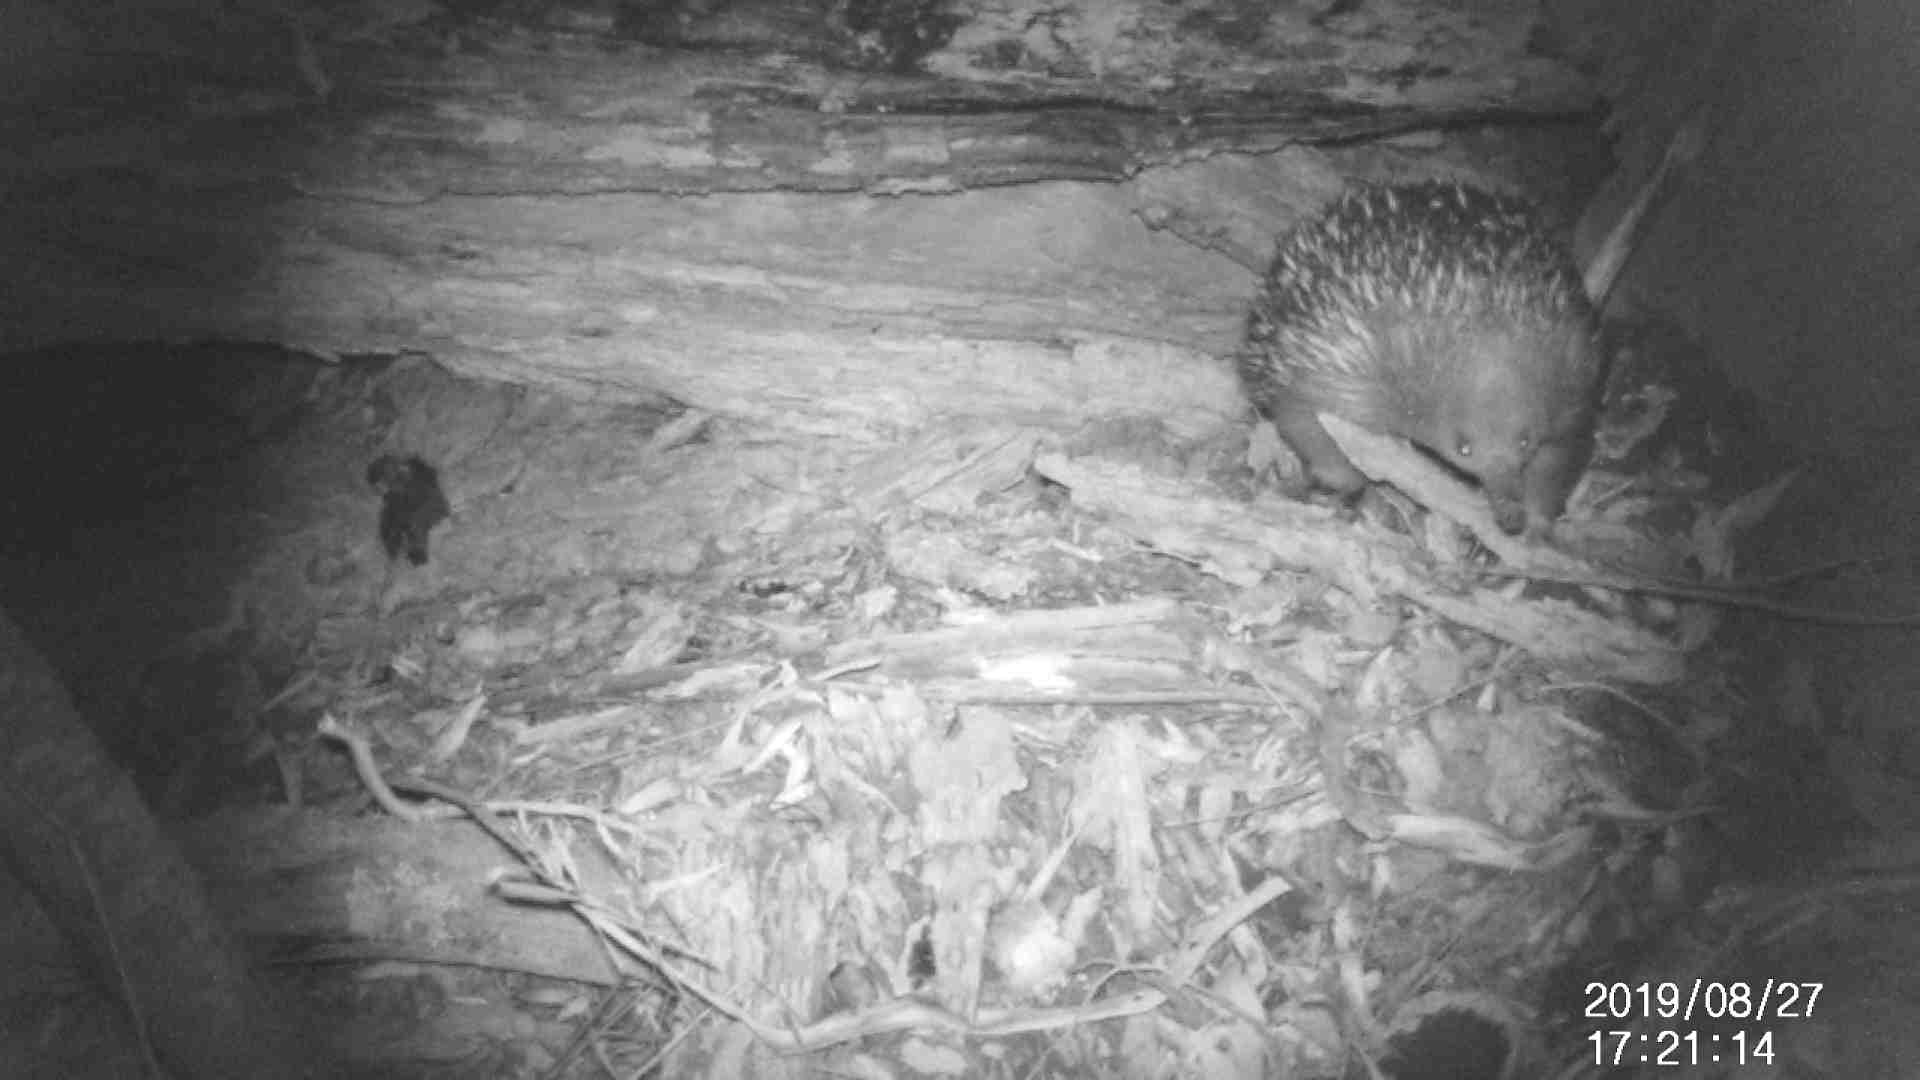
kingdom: Animalia
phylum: Chordata
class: Mammalia
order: Monotremata
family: Tachyglossidae
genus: Tachyglossus
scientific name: Tachyglossus aculeatus
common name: Short-beaked echidna
